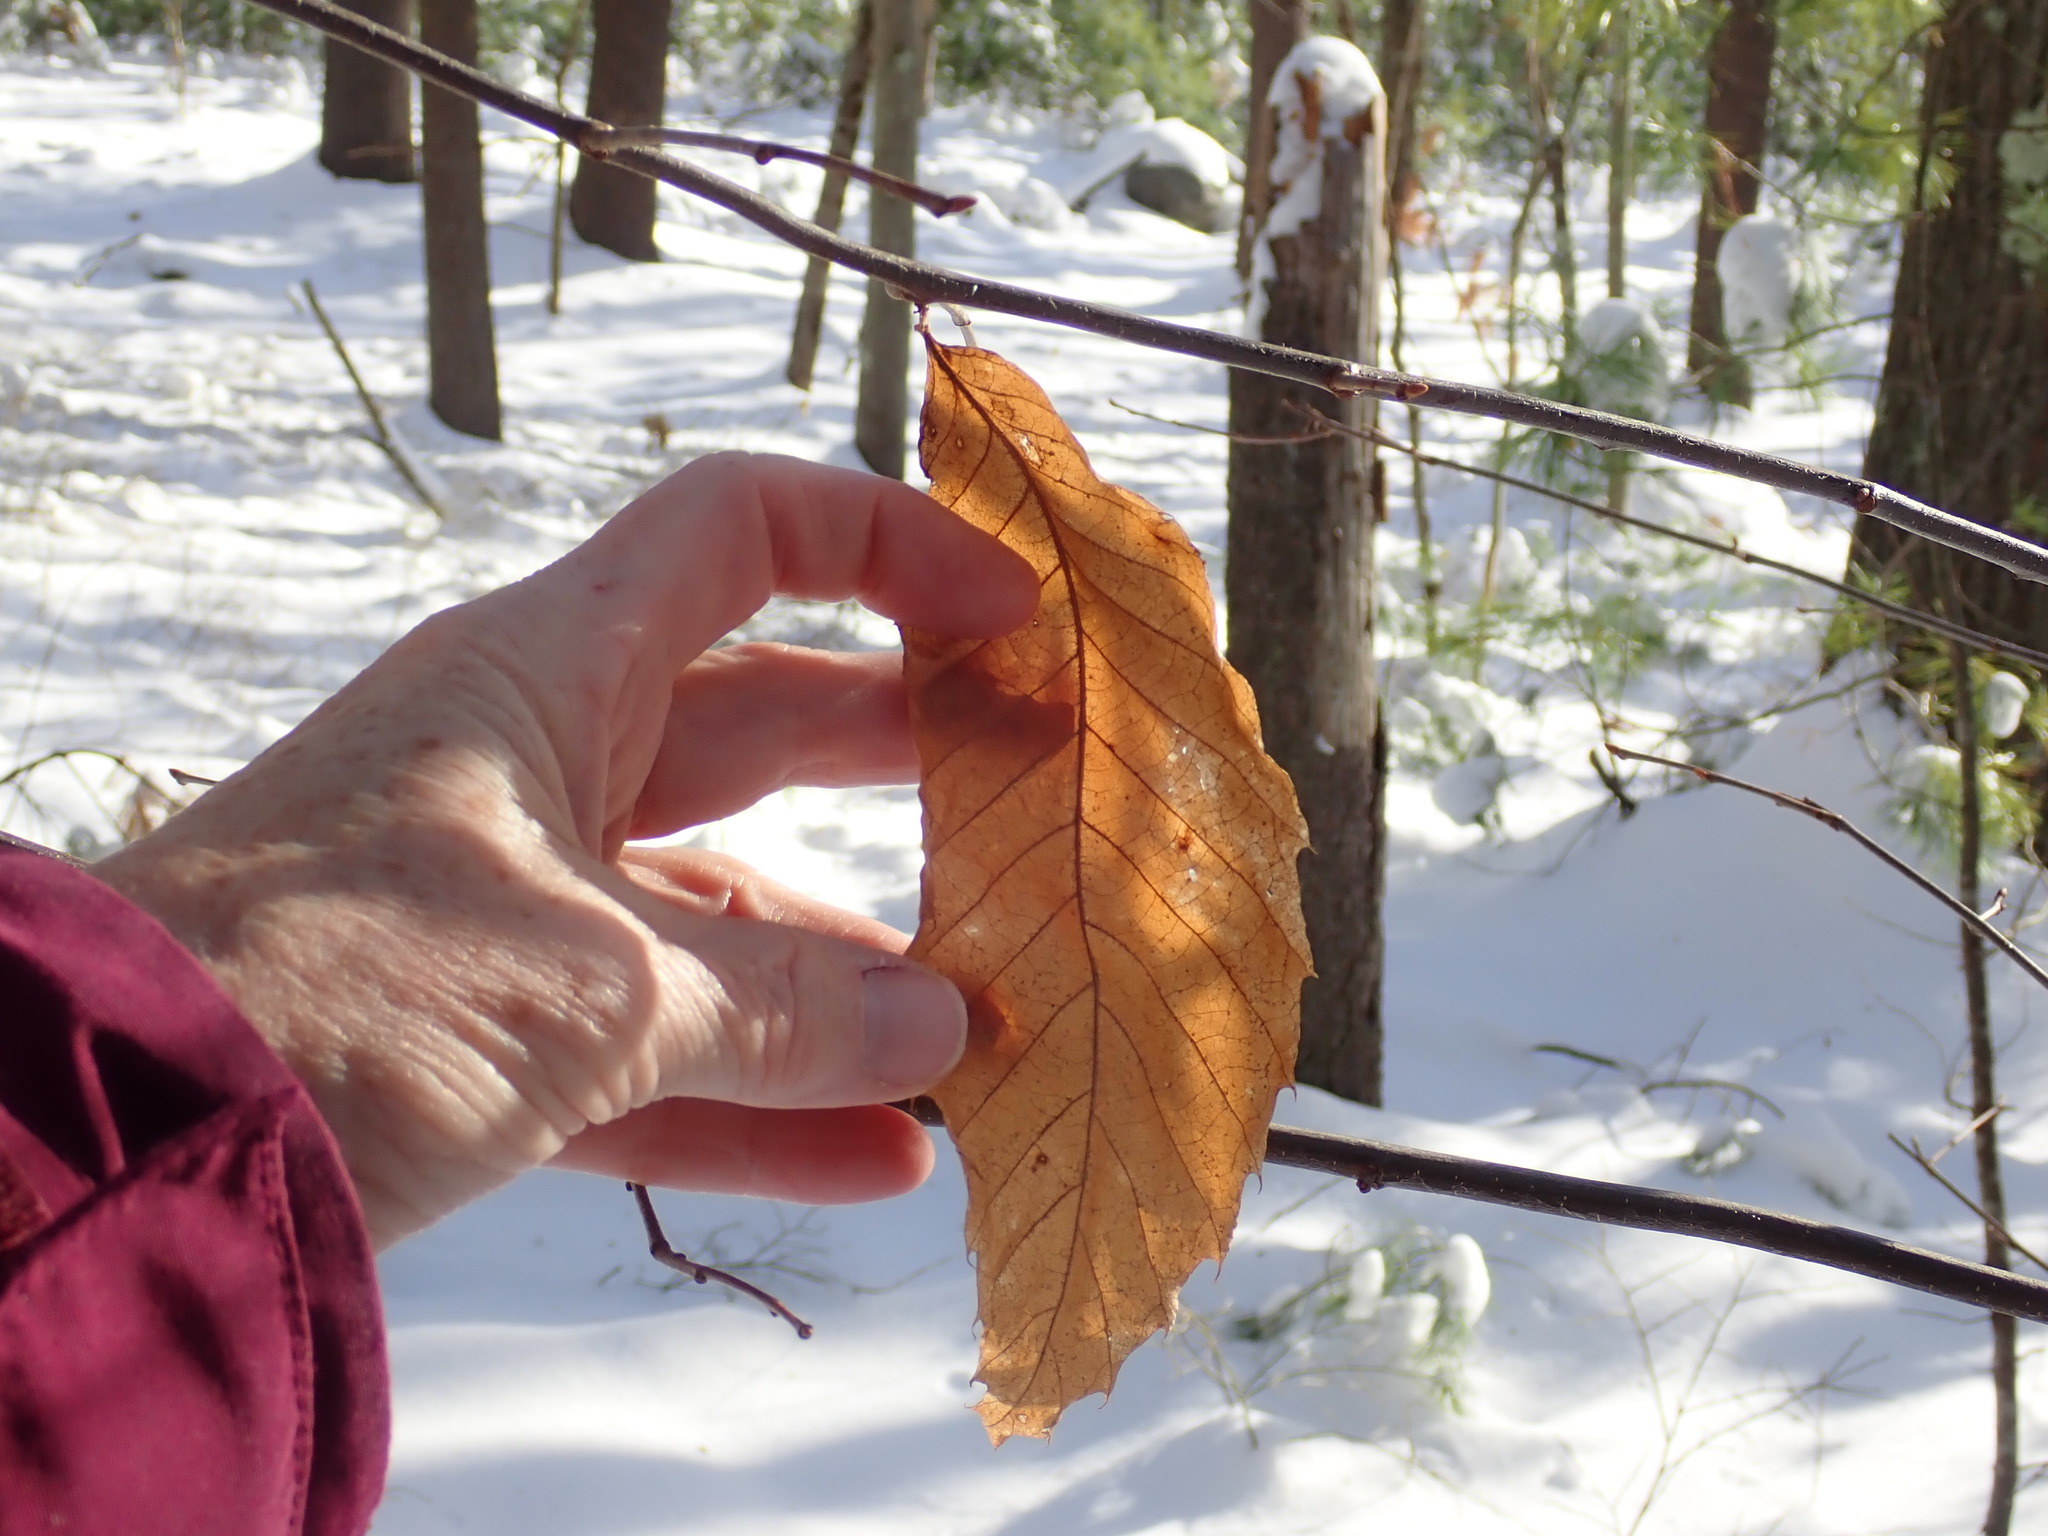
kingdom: Plantae
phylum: Tracheophyta
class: Magnoliopsida
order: Fagales
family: Fagaceae
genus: Castanea
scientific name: Castanea dentata
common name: American chestnut
